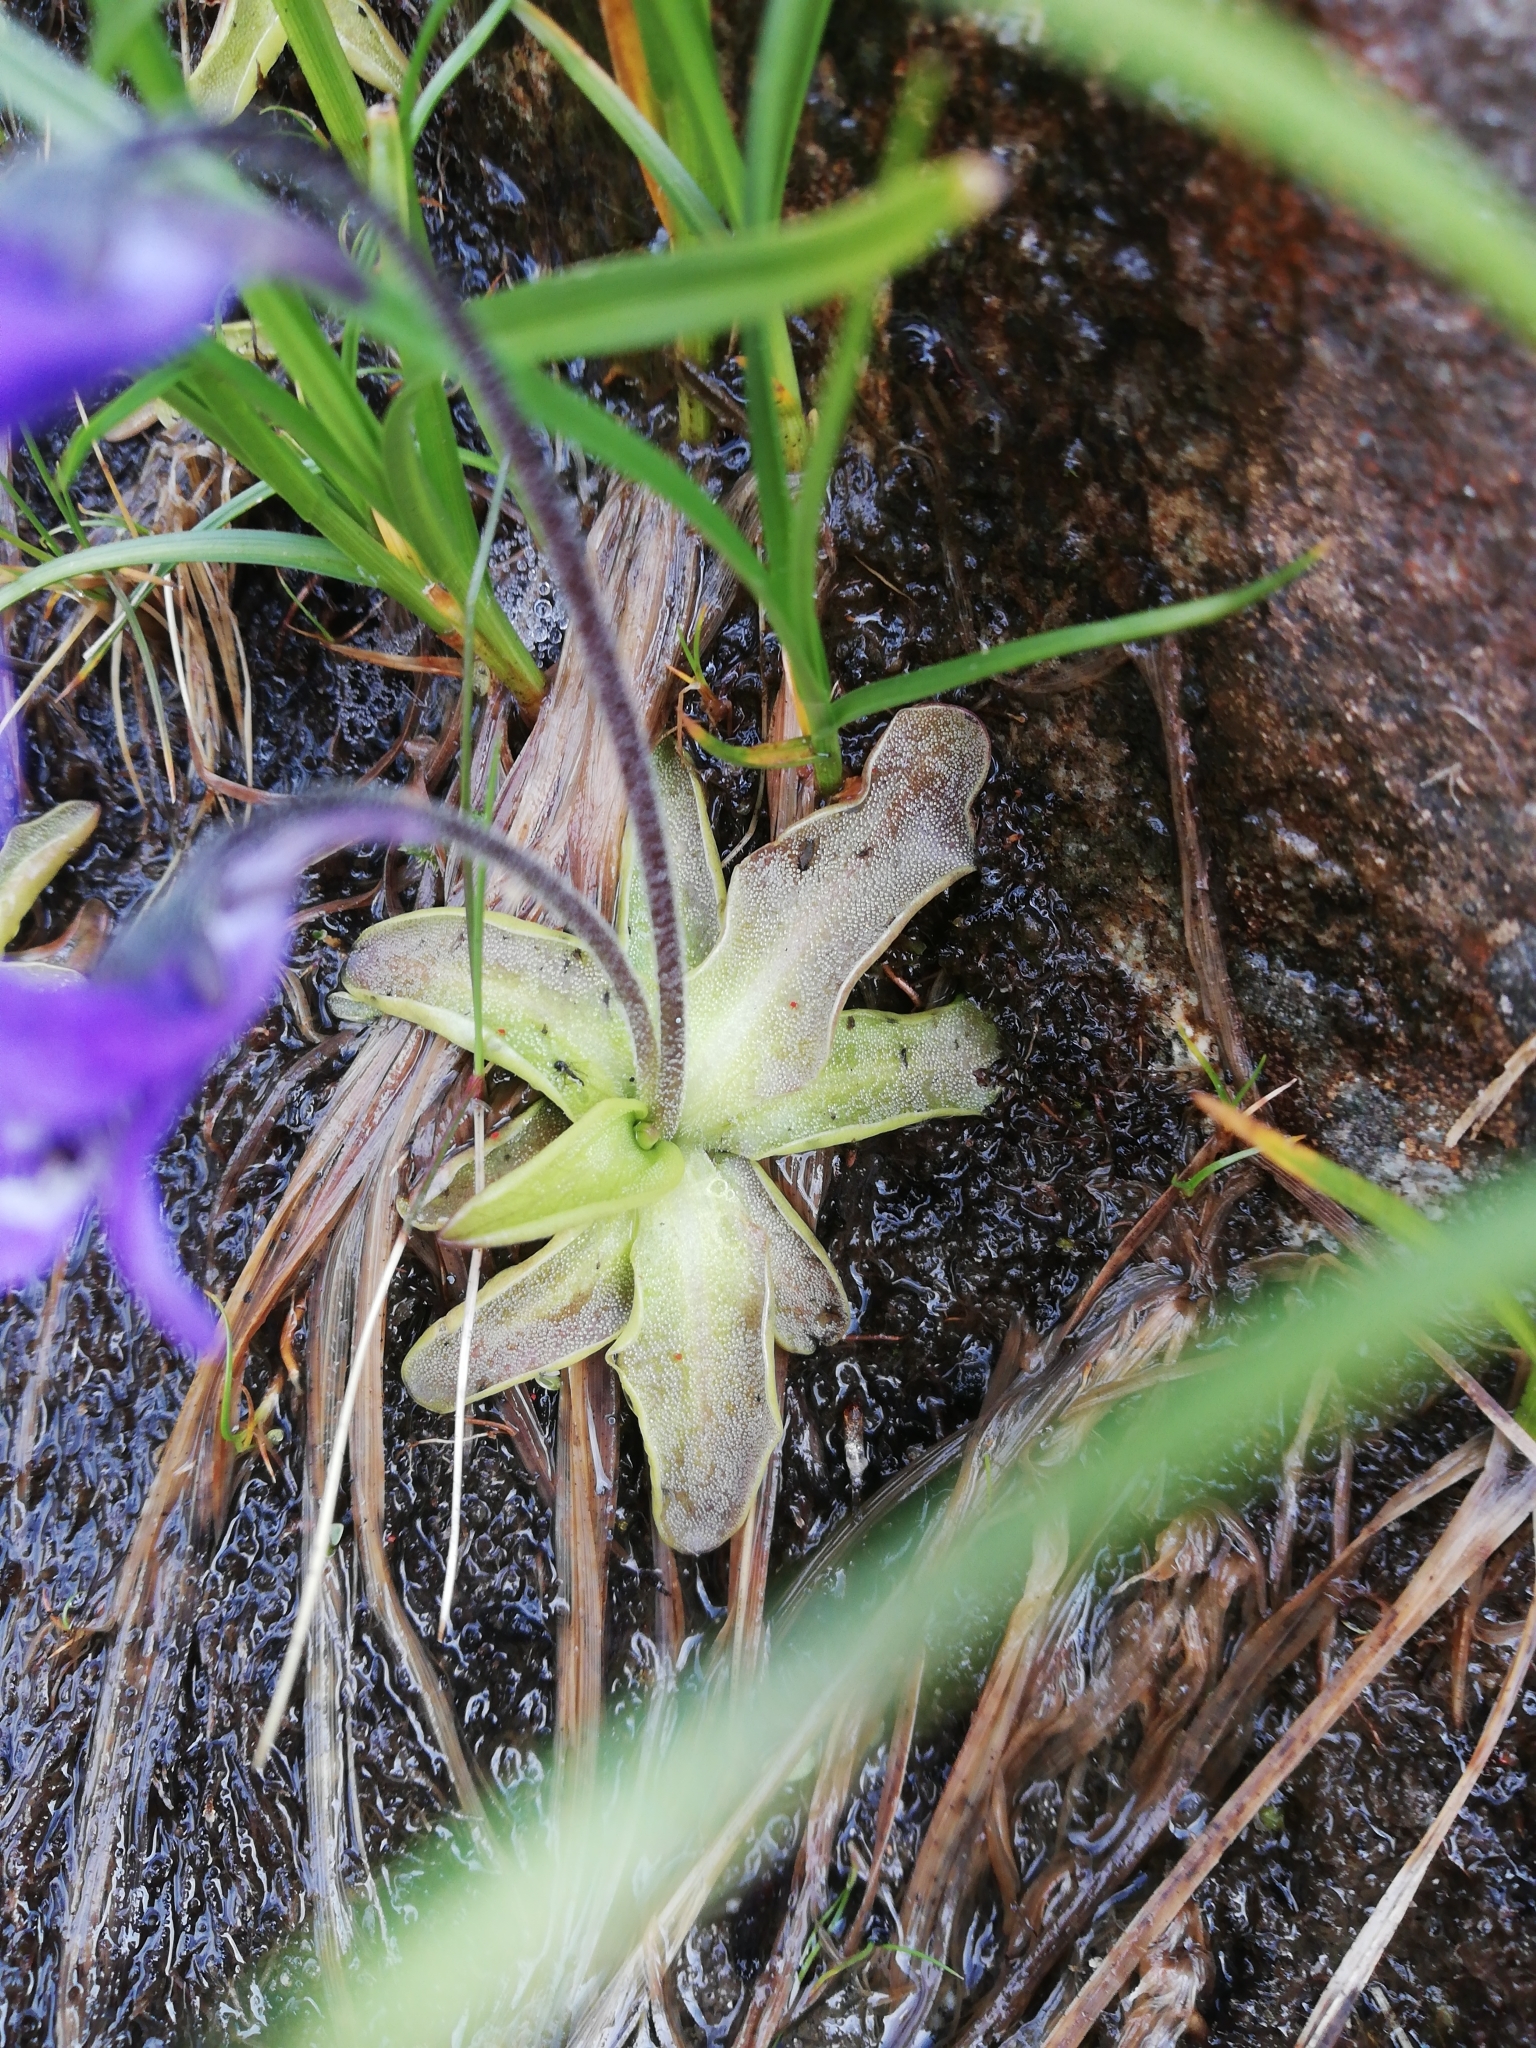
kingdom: Plantae
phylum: Tracheophyta
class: Magnoliopsida
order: Lamiales
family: Lentibulariaceae
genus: Pinguicula
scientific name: Pinguicula leptoceras
